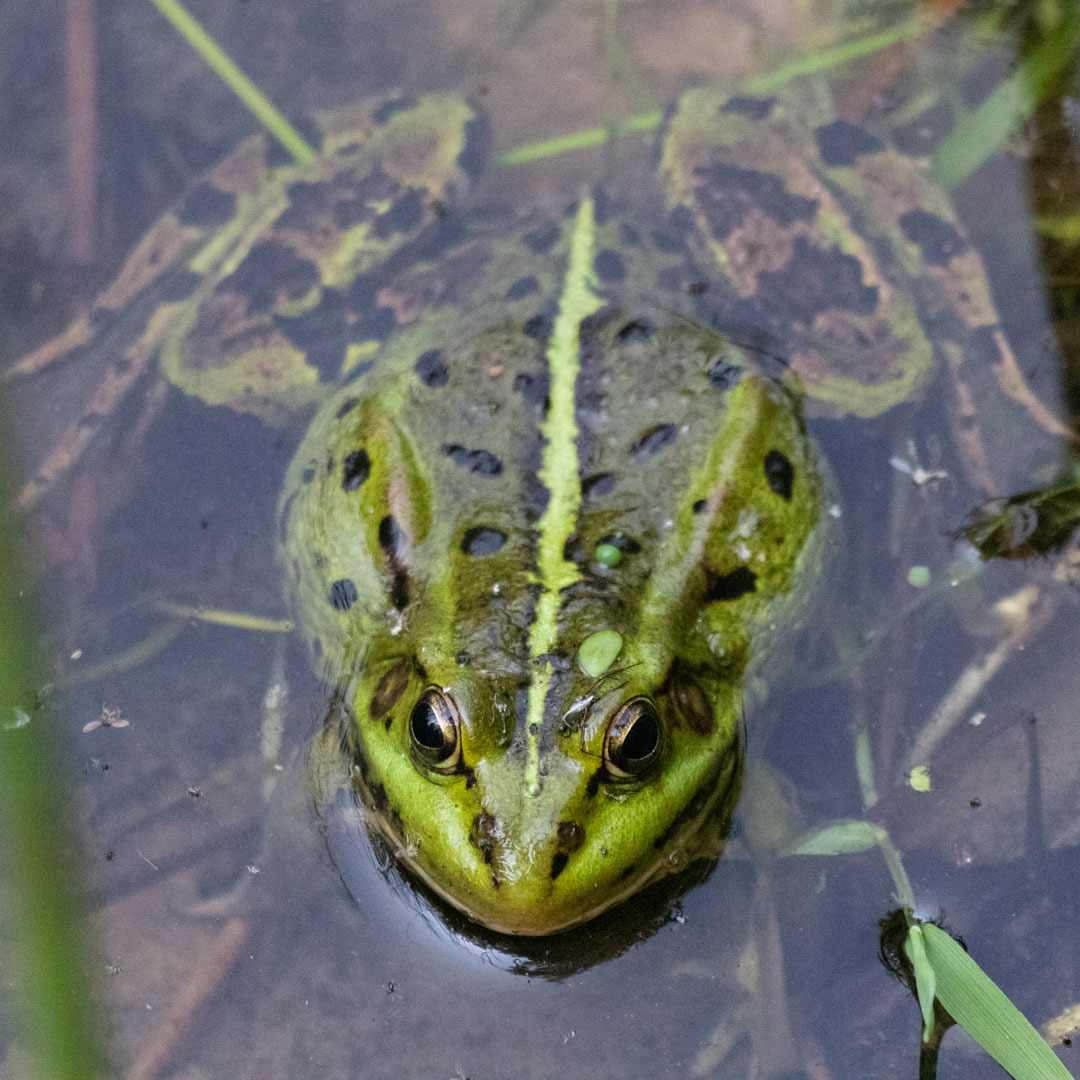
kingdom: Animalia
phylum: Chordata
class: Amphibia
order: Anura
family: Ranidae
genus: Pelophylax
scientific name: Pelophylax ridibundus
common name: Marsh frog
